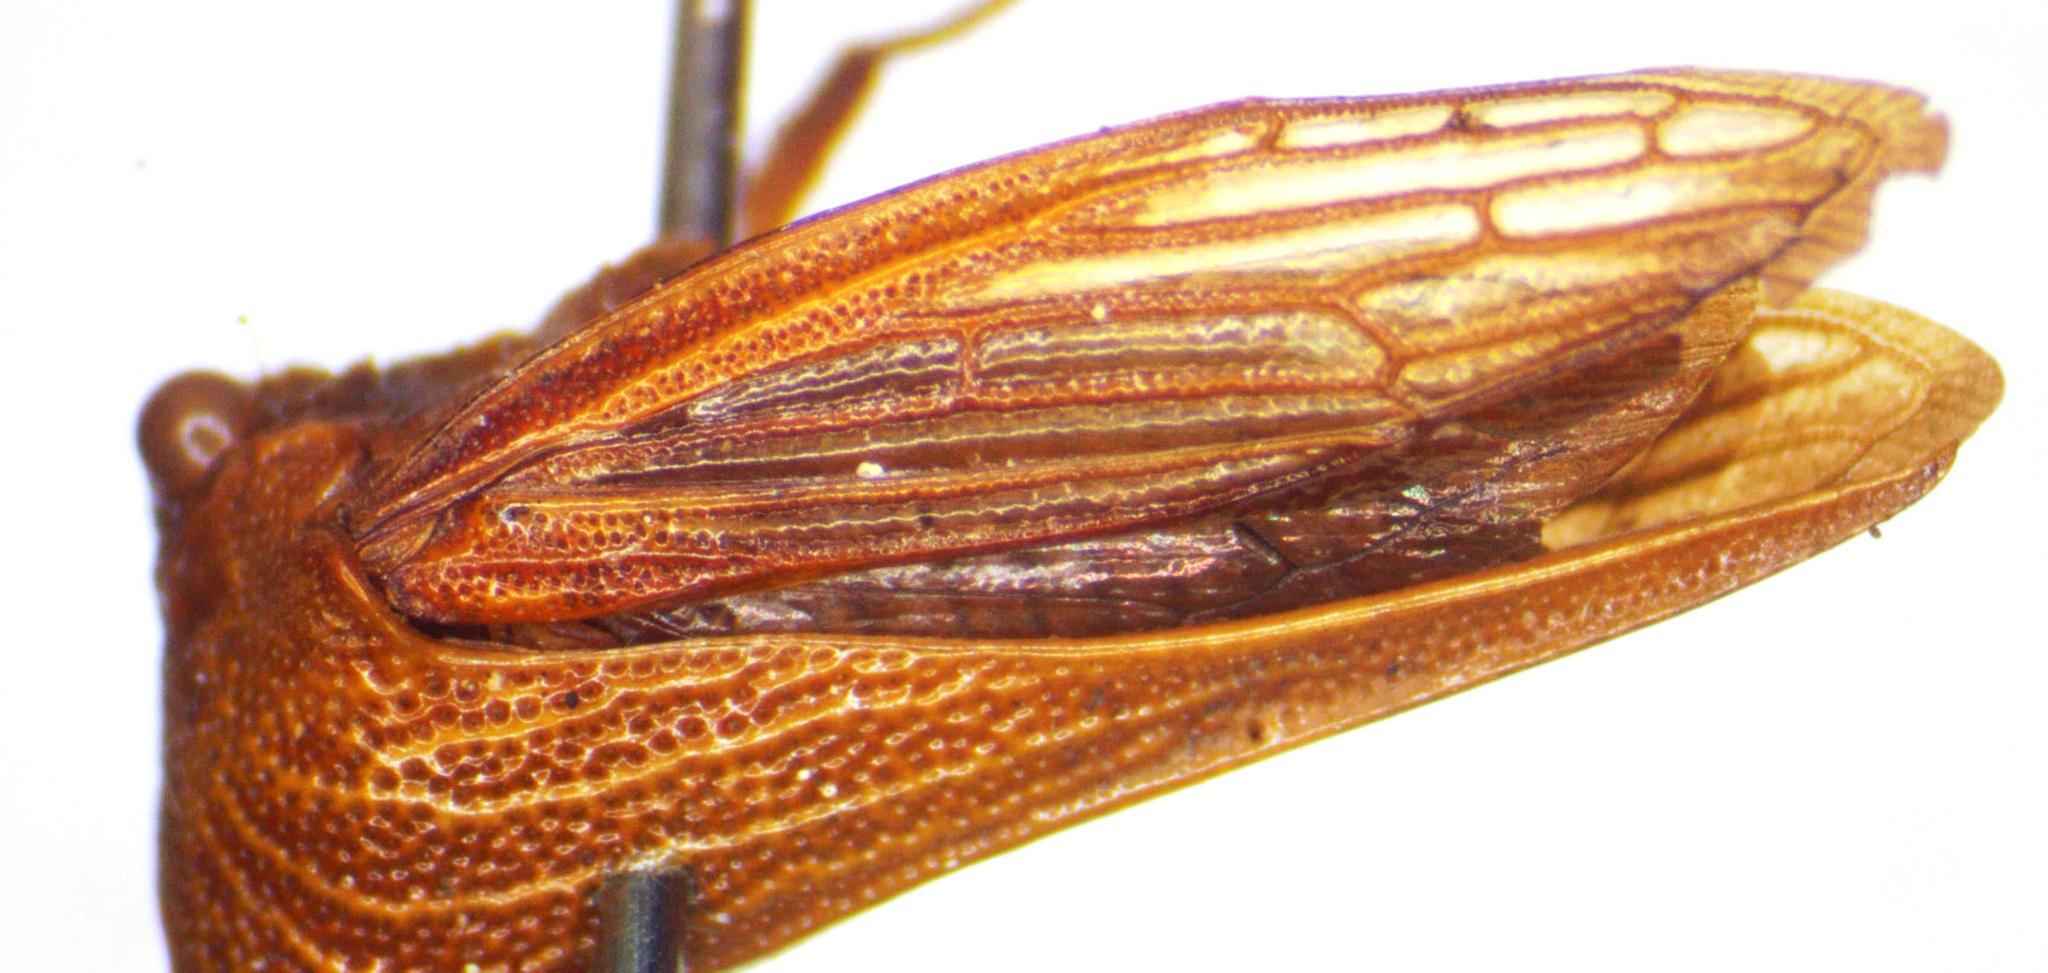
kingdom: Animalia
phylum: Arthropoda
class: Insecta
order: Hemiptera
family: Membracidae
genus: Potnia
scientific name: Potnia gladiator
